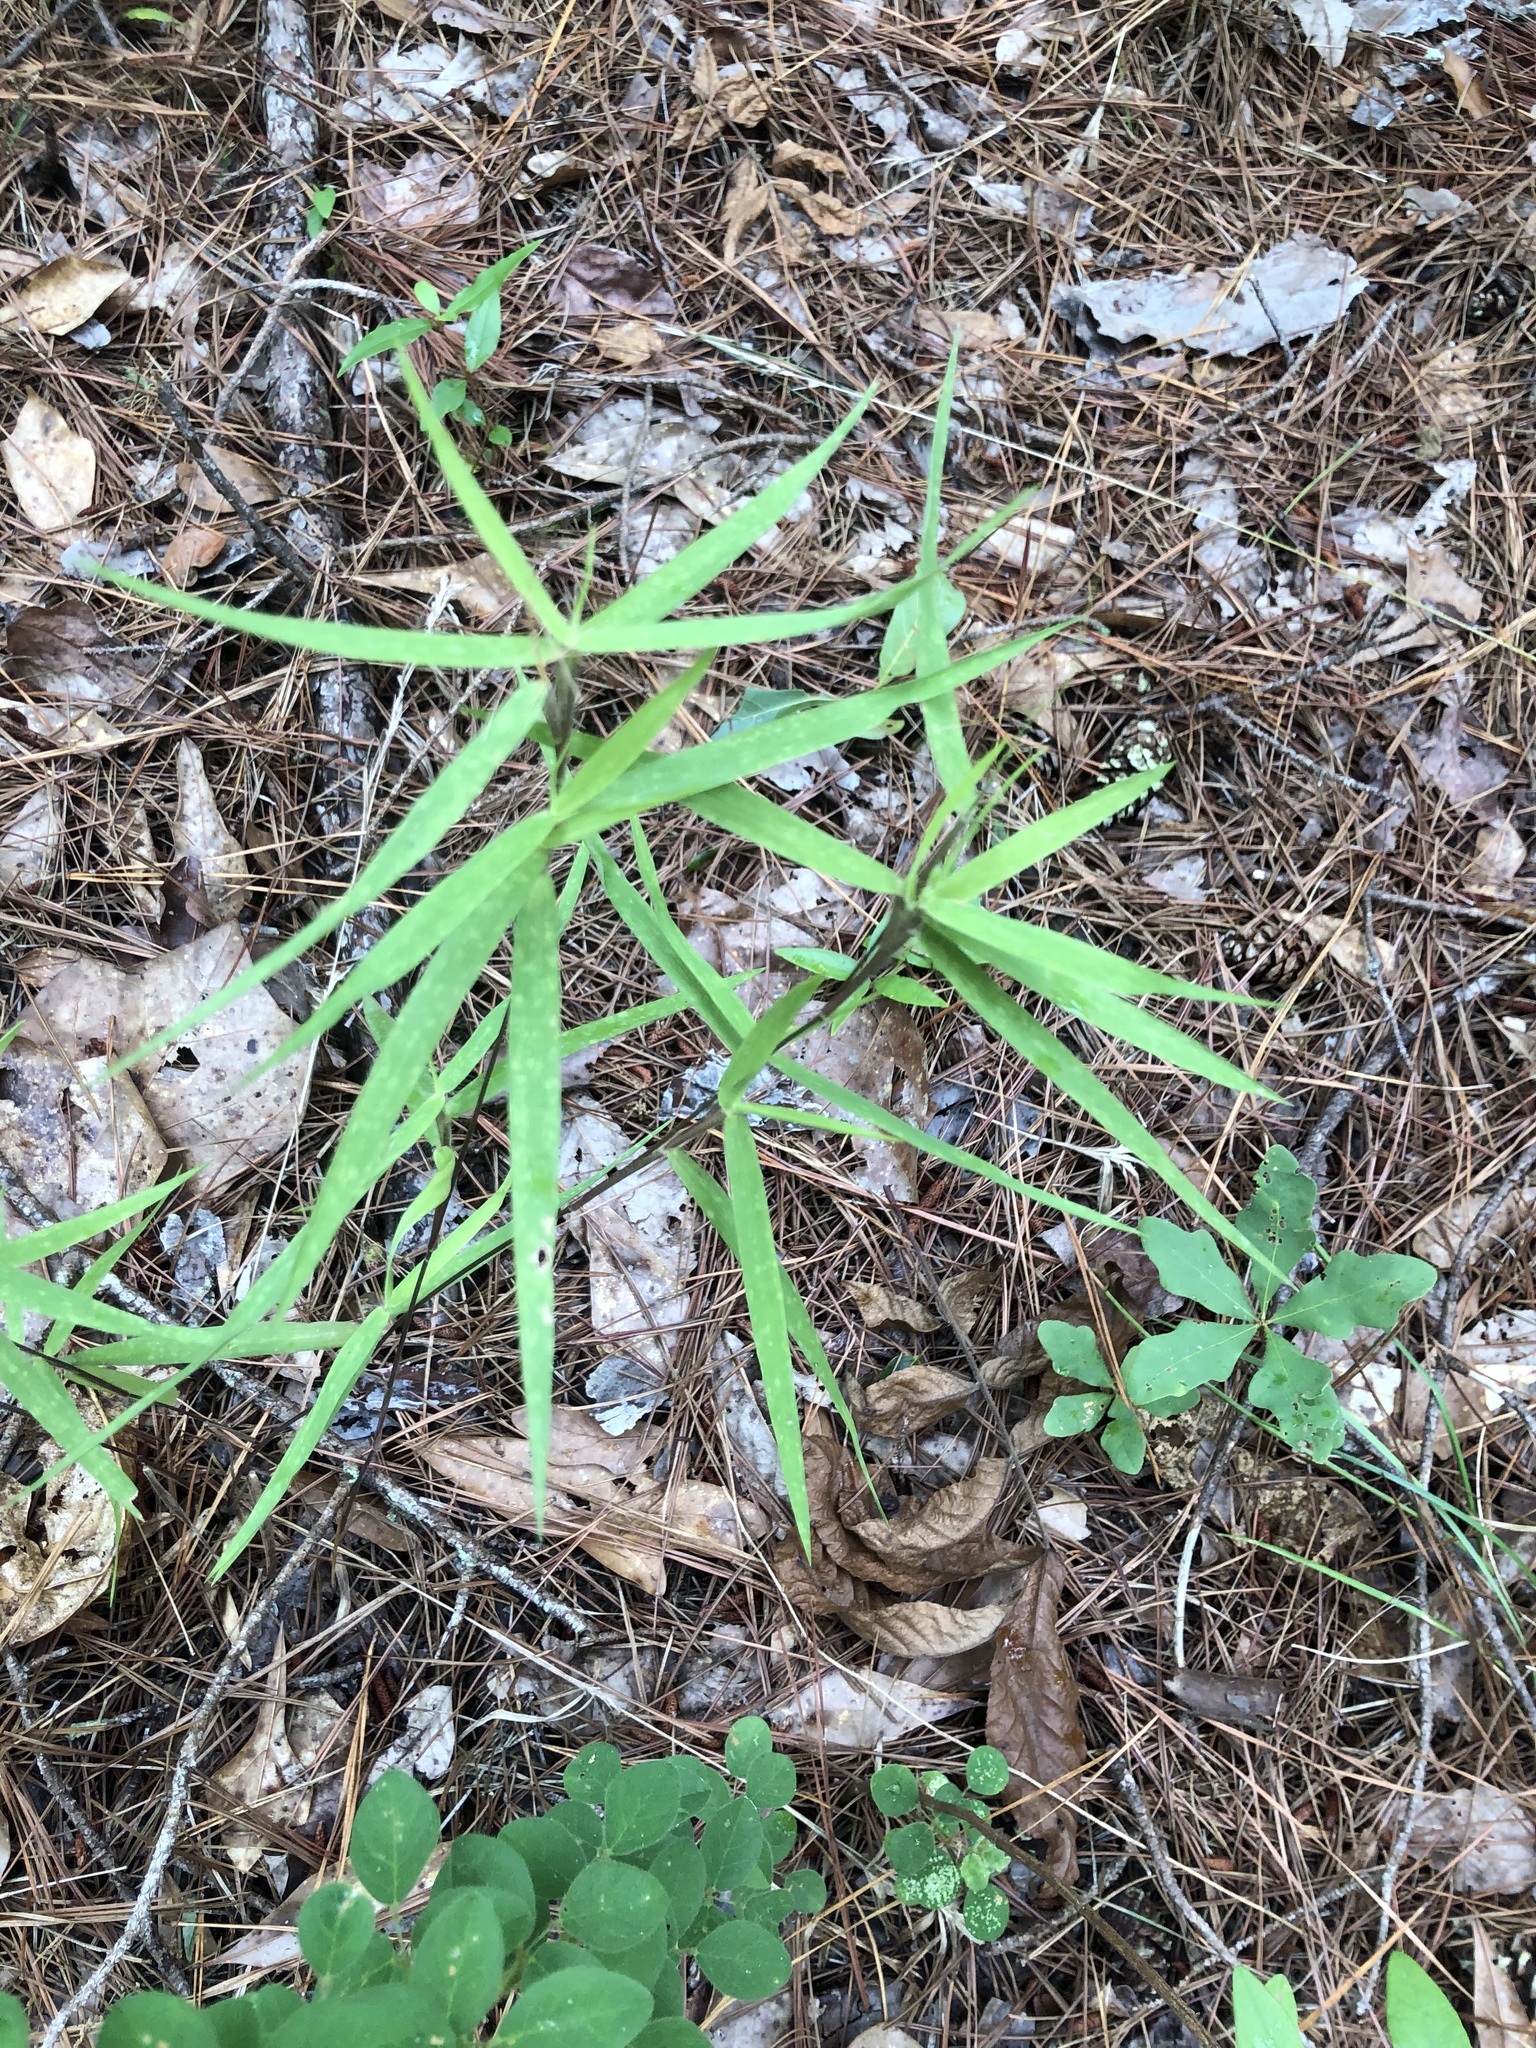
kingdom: Plantae
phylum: Tracheophyta
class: Liliopsida
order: Poales
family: Poaceae
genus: Dichanthelium
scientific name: Dichanthelium oligosanthes
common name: Few-anther obscuregrass
